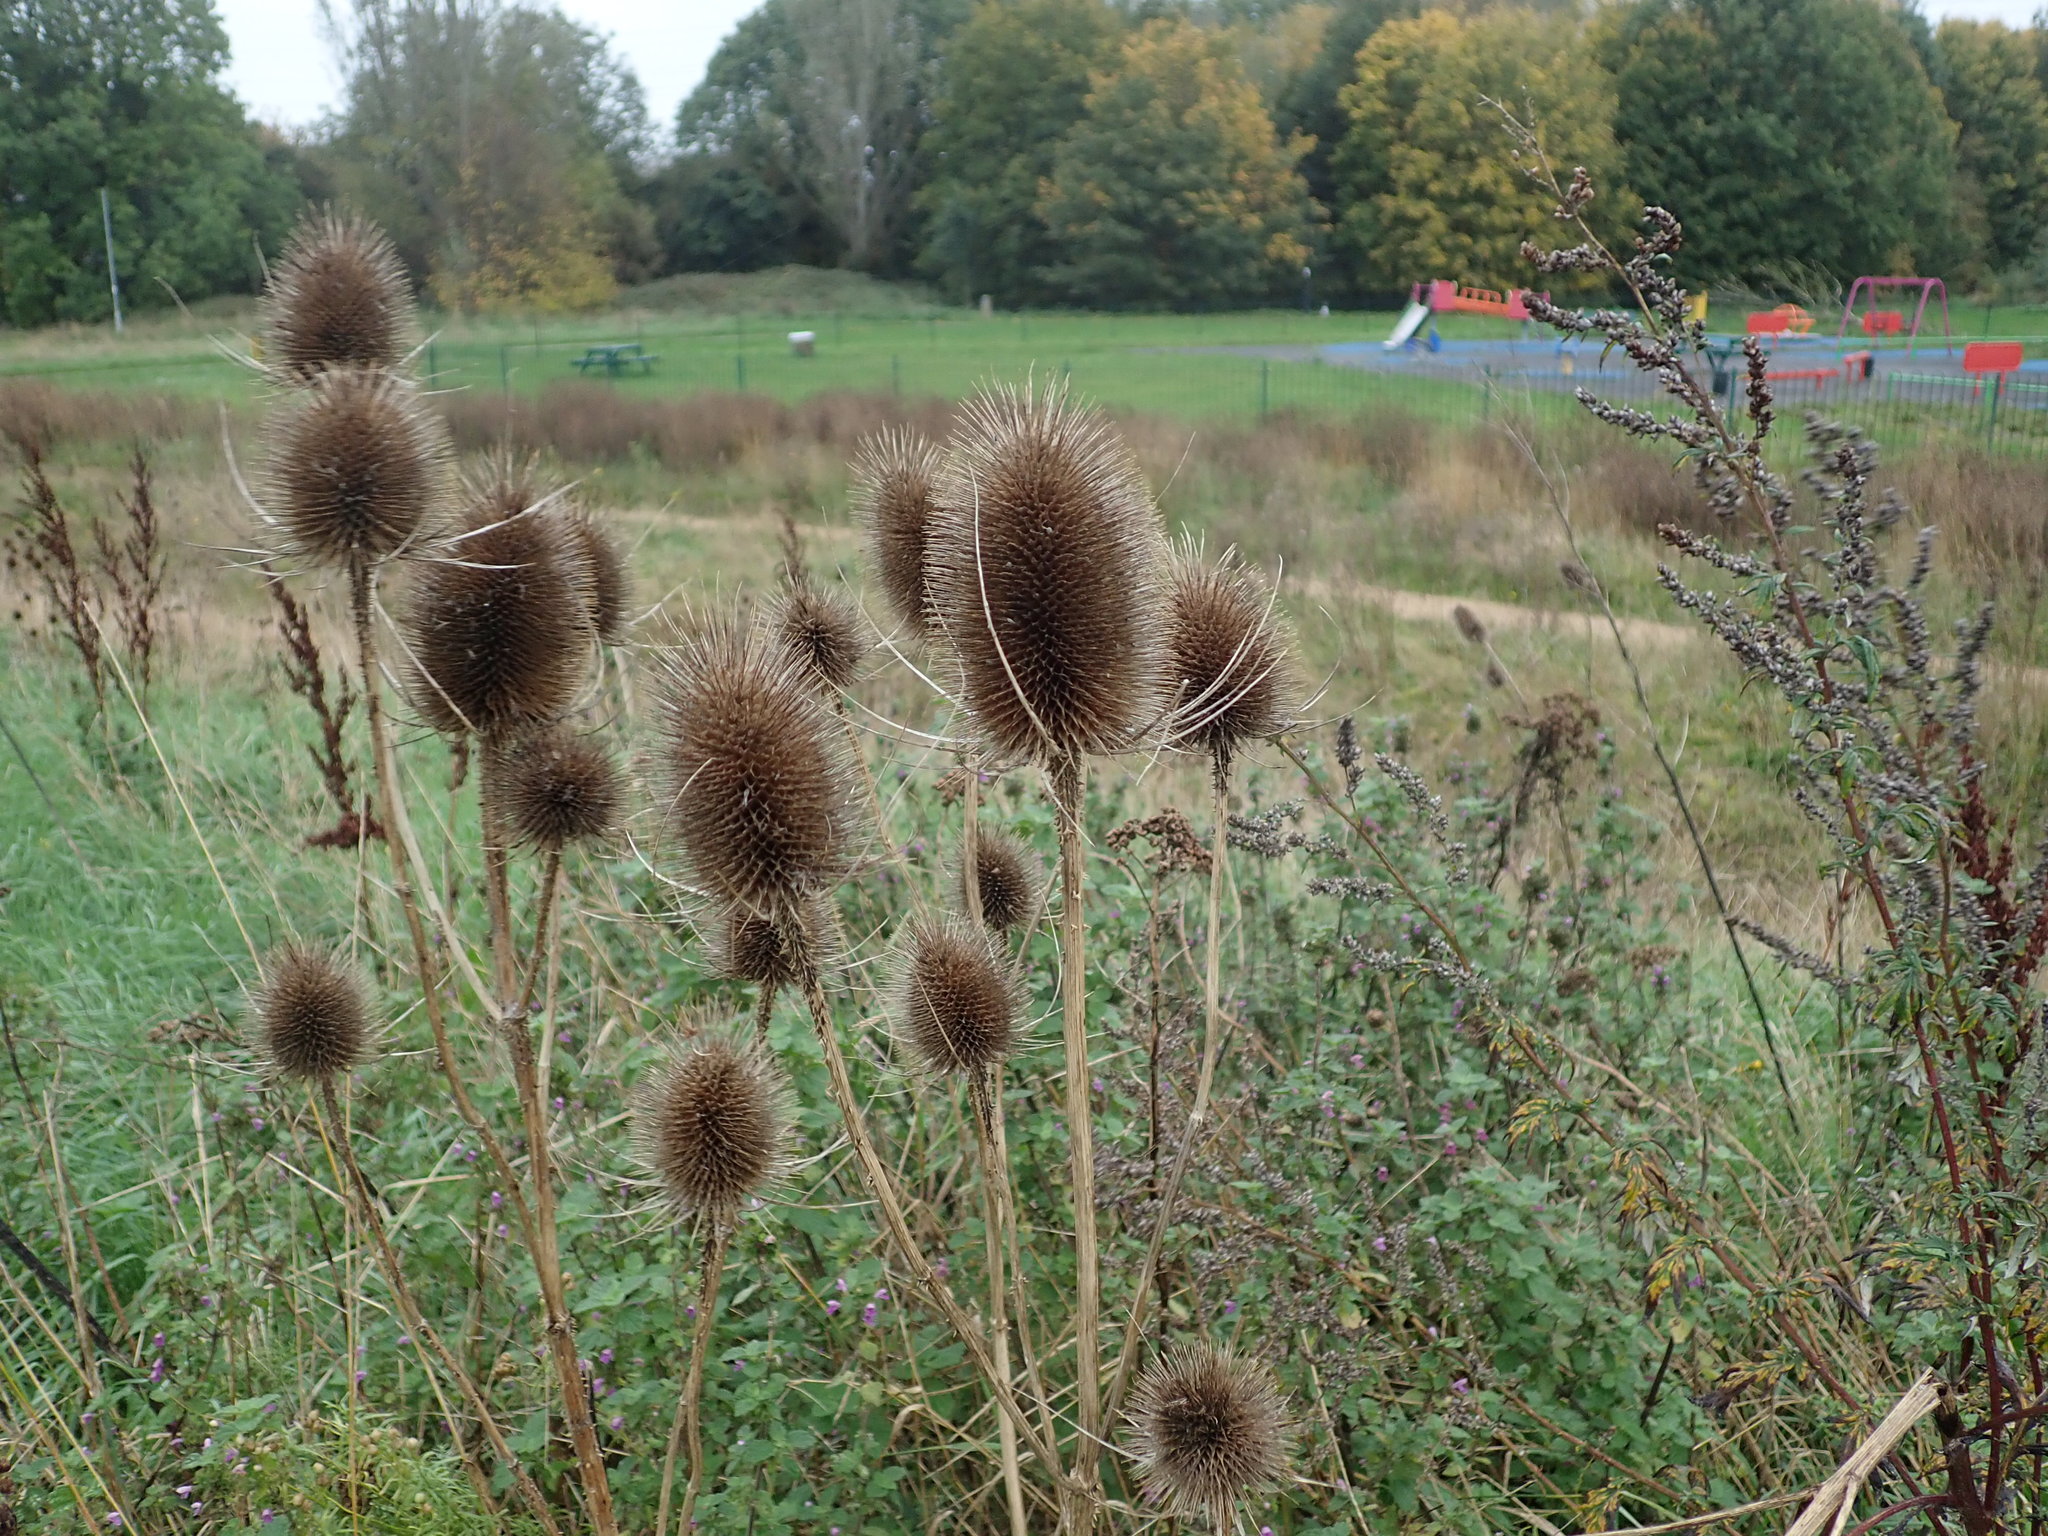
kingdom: Plantae
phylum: Tracheophyta
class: Magnoliopsida
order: Dipsacales
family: Caprifoliaceae
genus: Dipsacus
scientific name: Dipsacus fullonum
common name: Teasel
